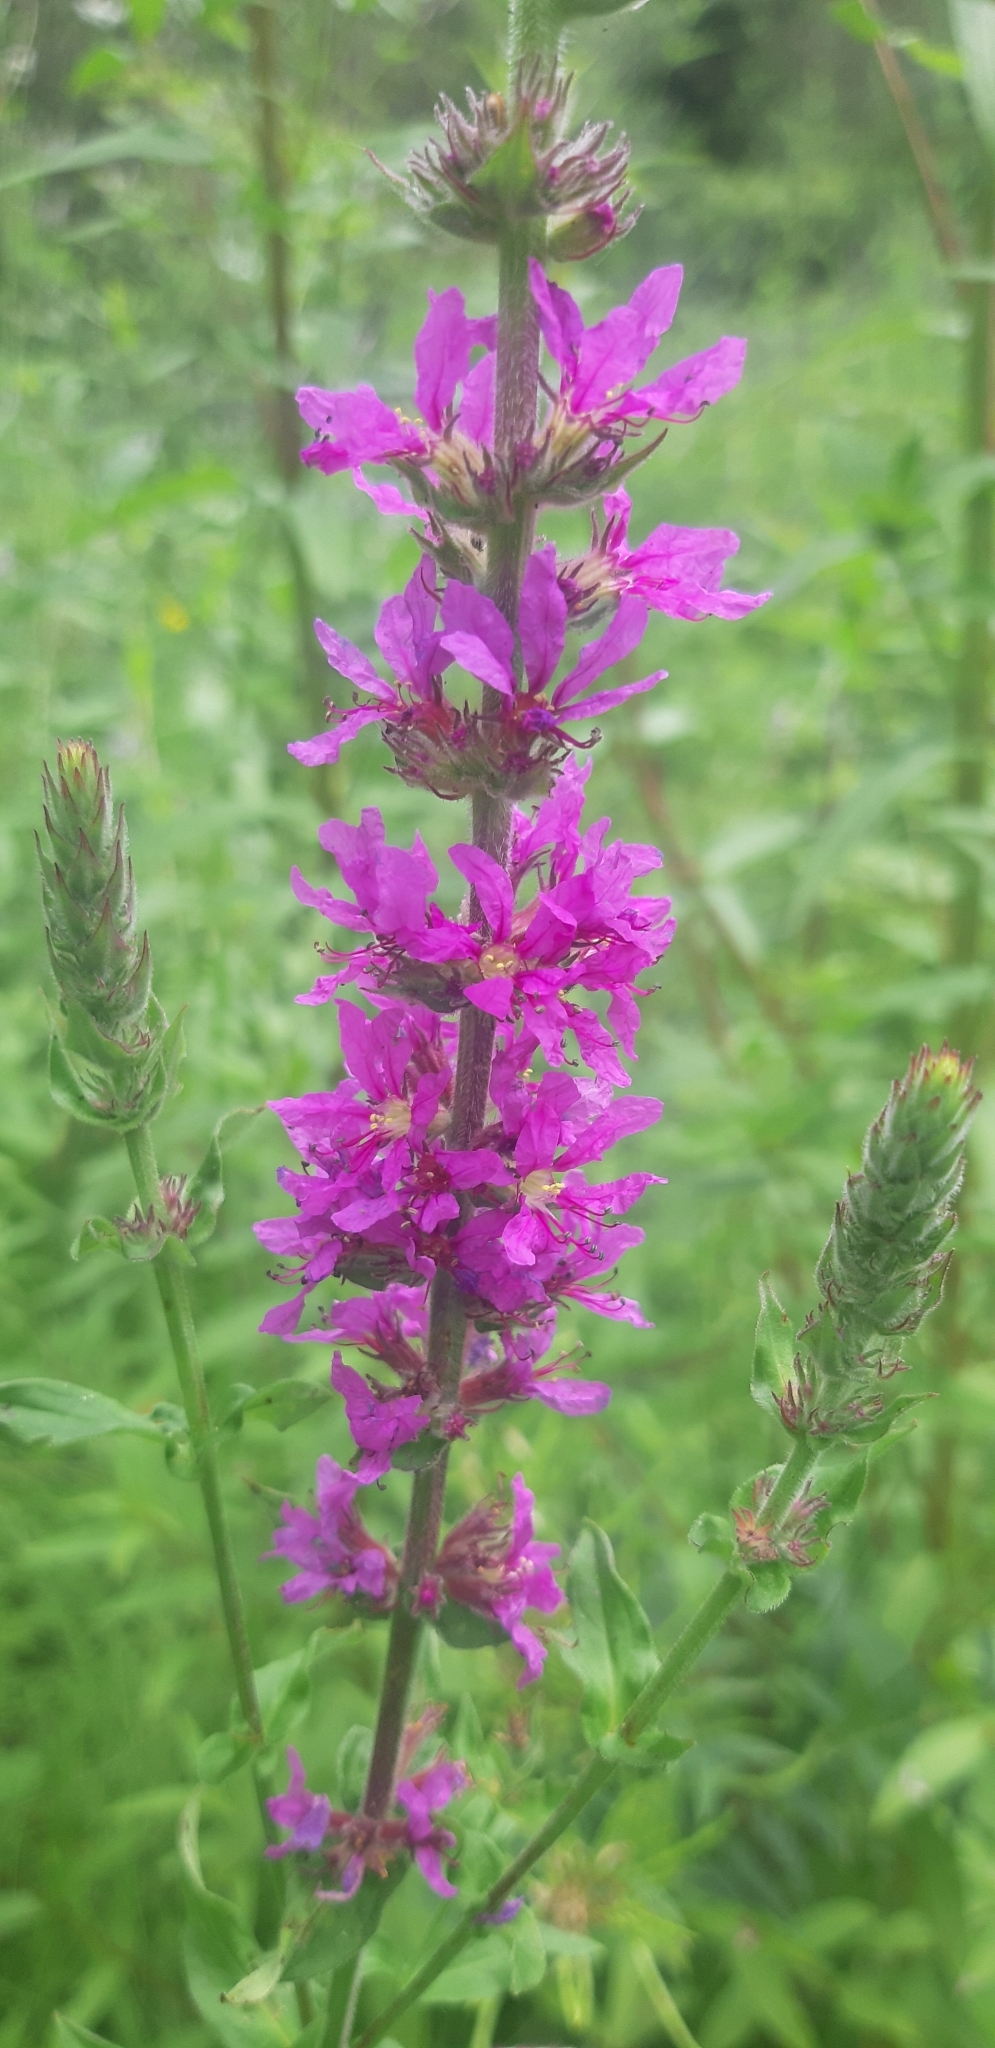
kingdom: Plantae
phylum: Tracheophyta
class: Magnoliopsida
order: Myrtales
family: Lythraceae
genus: Lythrum
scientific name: Lythrum salicaria
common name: Purple loosestrife
